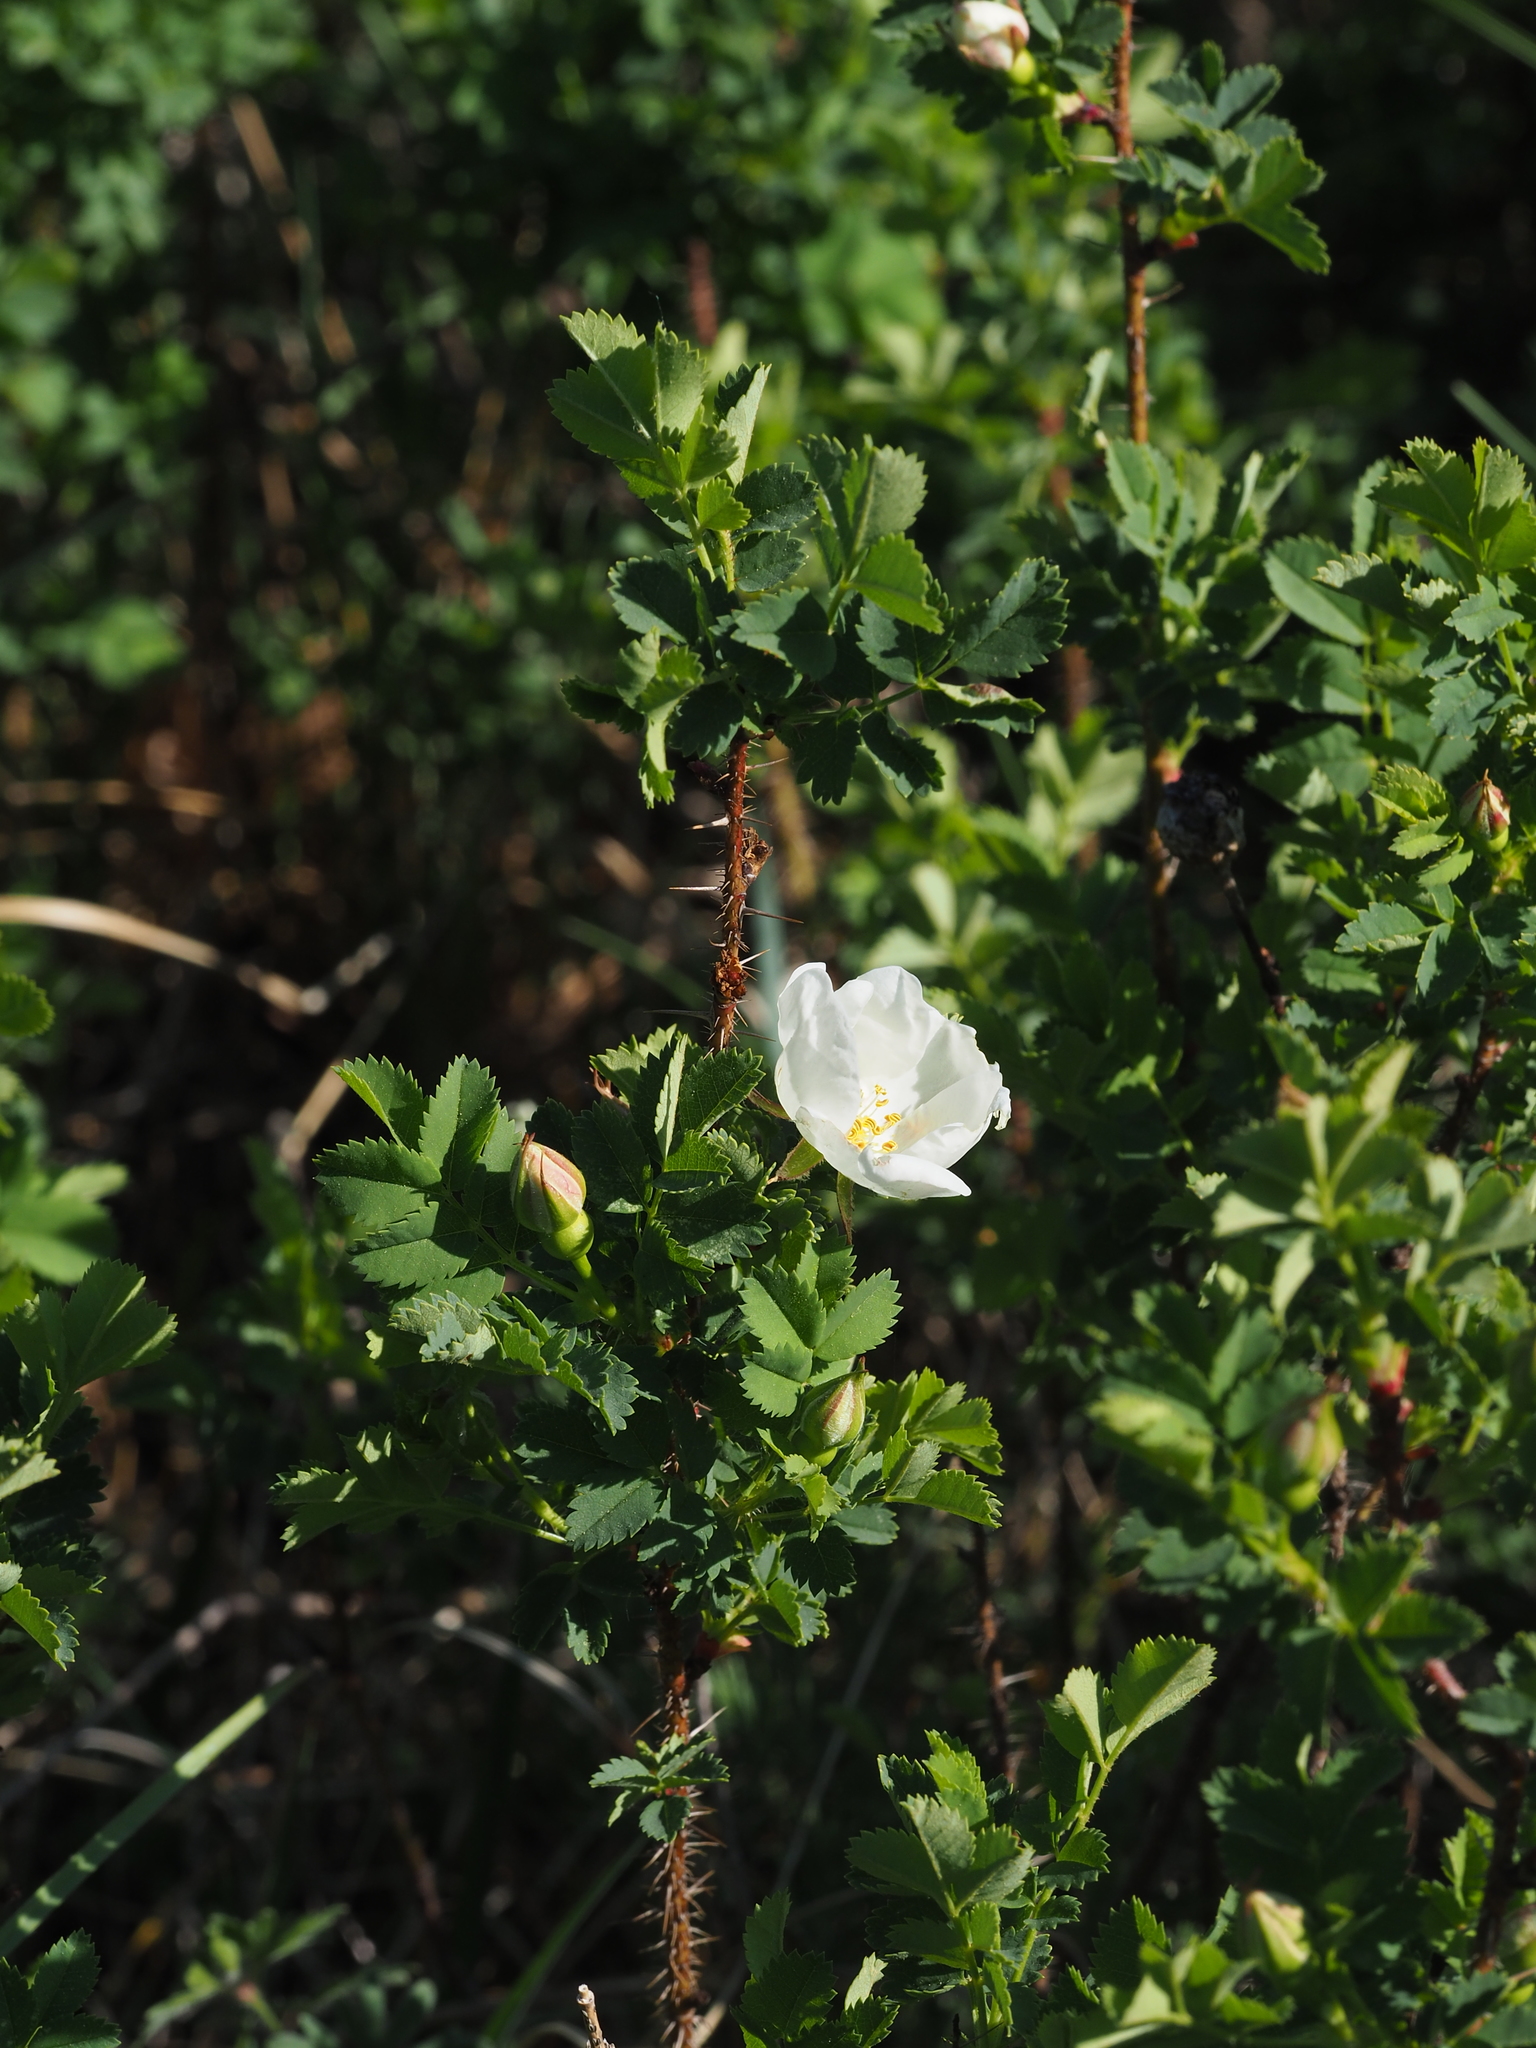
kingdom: Plantae
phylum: Tracheophyta
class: Magnoliopsida
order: Rosales
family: Rosaceae
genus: Rosa
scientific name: Rosa spinosissima
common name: Burnet rose
